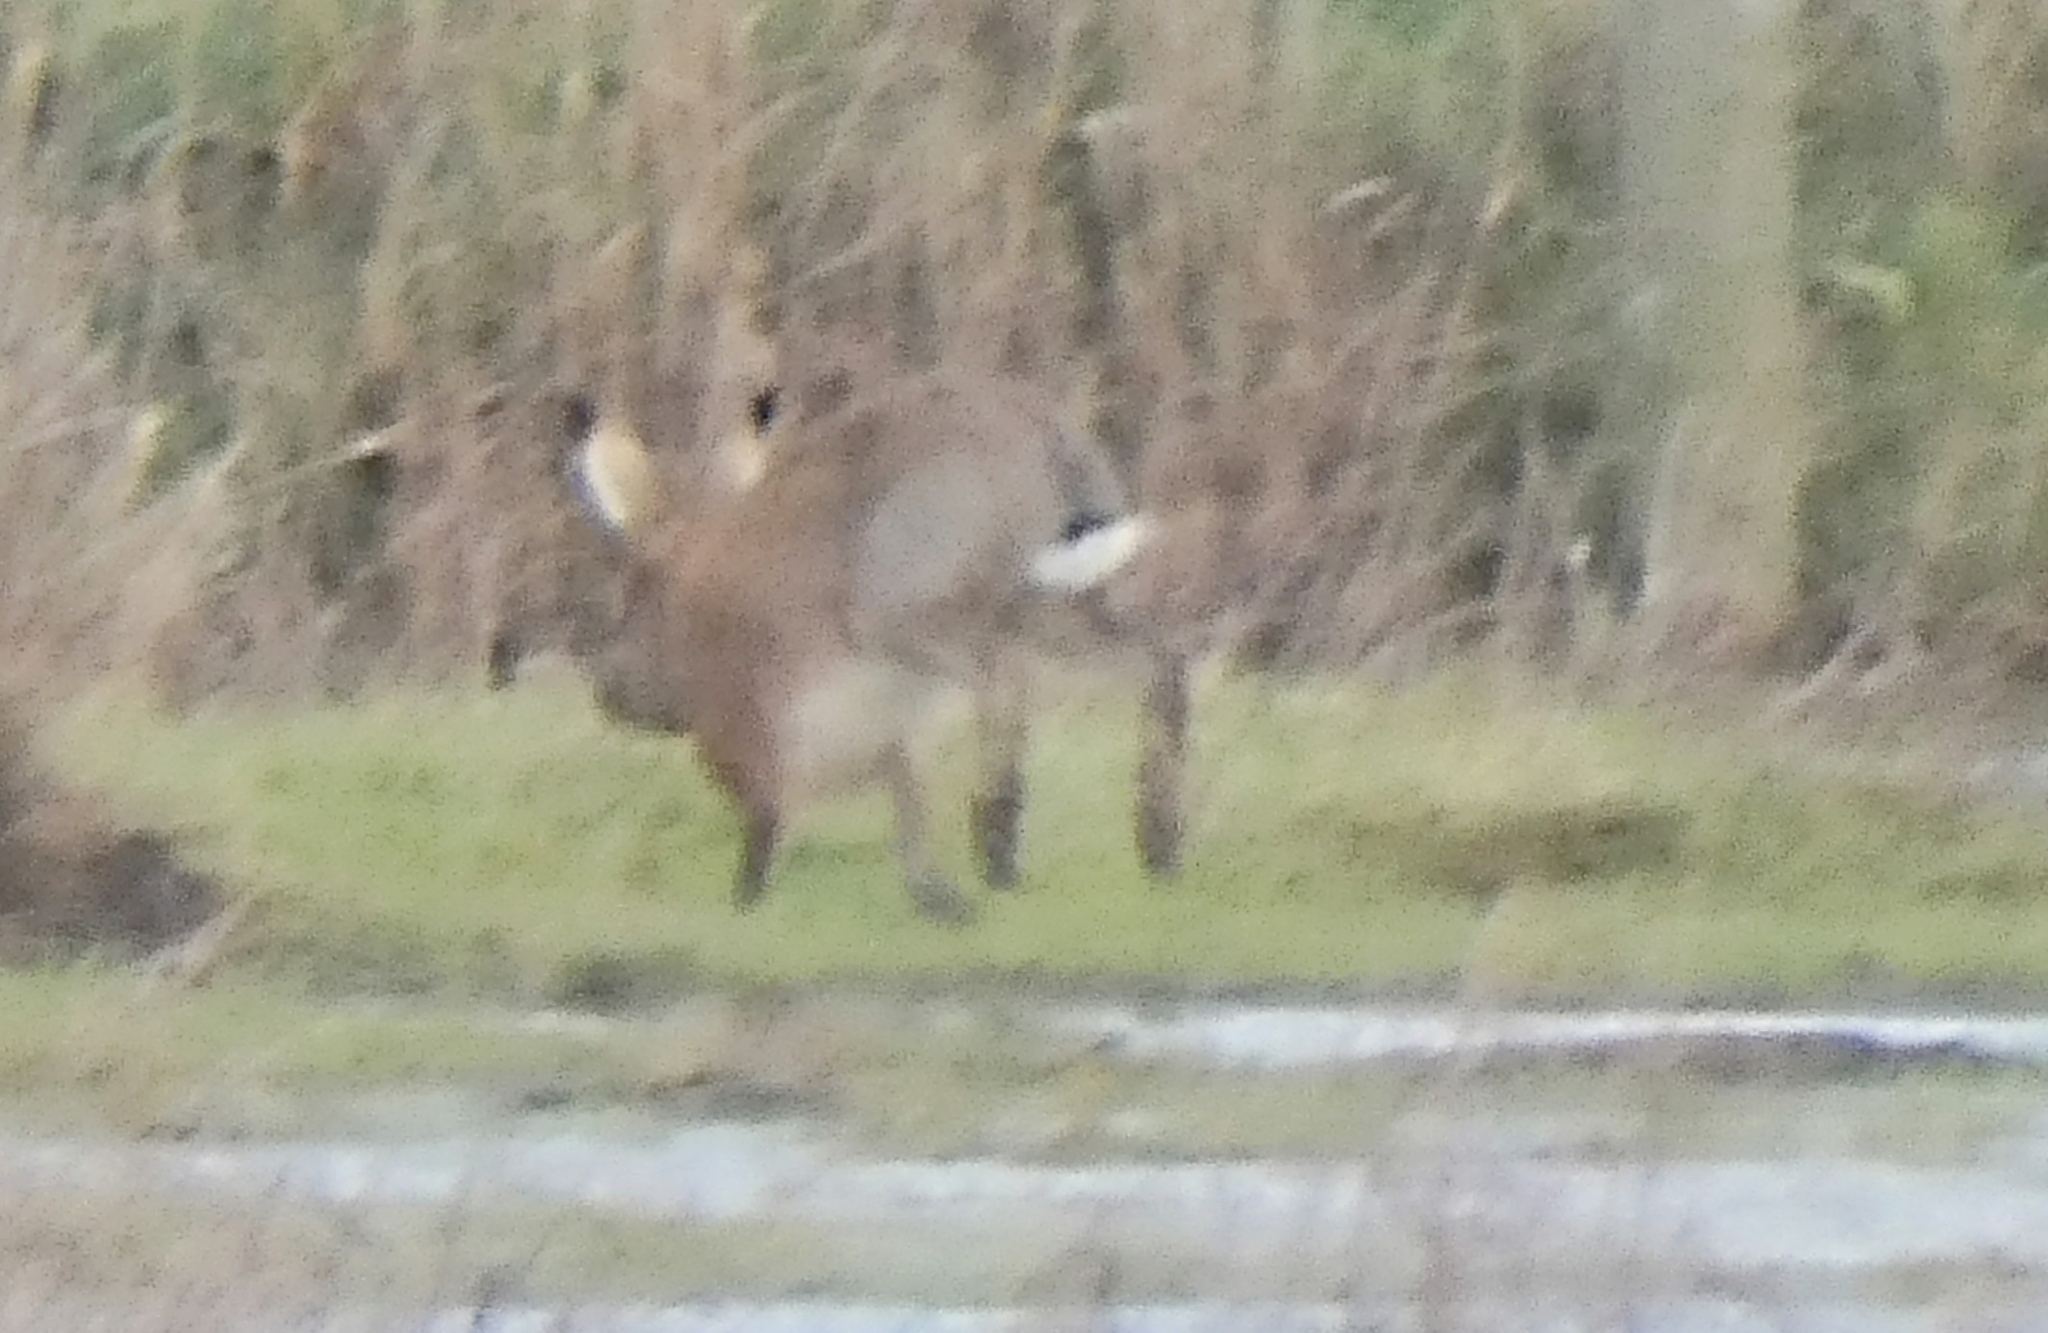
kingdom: Animalia
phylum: Chordata
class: Mammalia
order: Lagomorpha
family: Leporidae
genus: Lepus
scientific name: Lepus europaeus
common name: European hare
